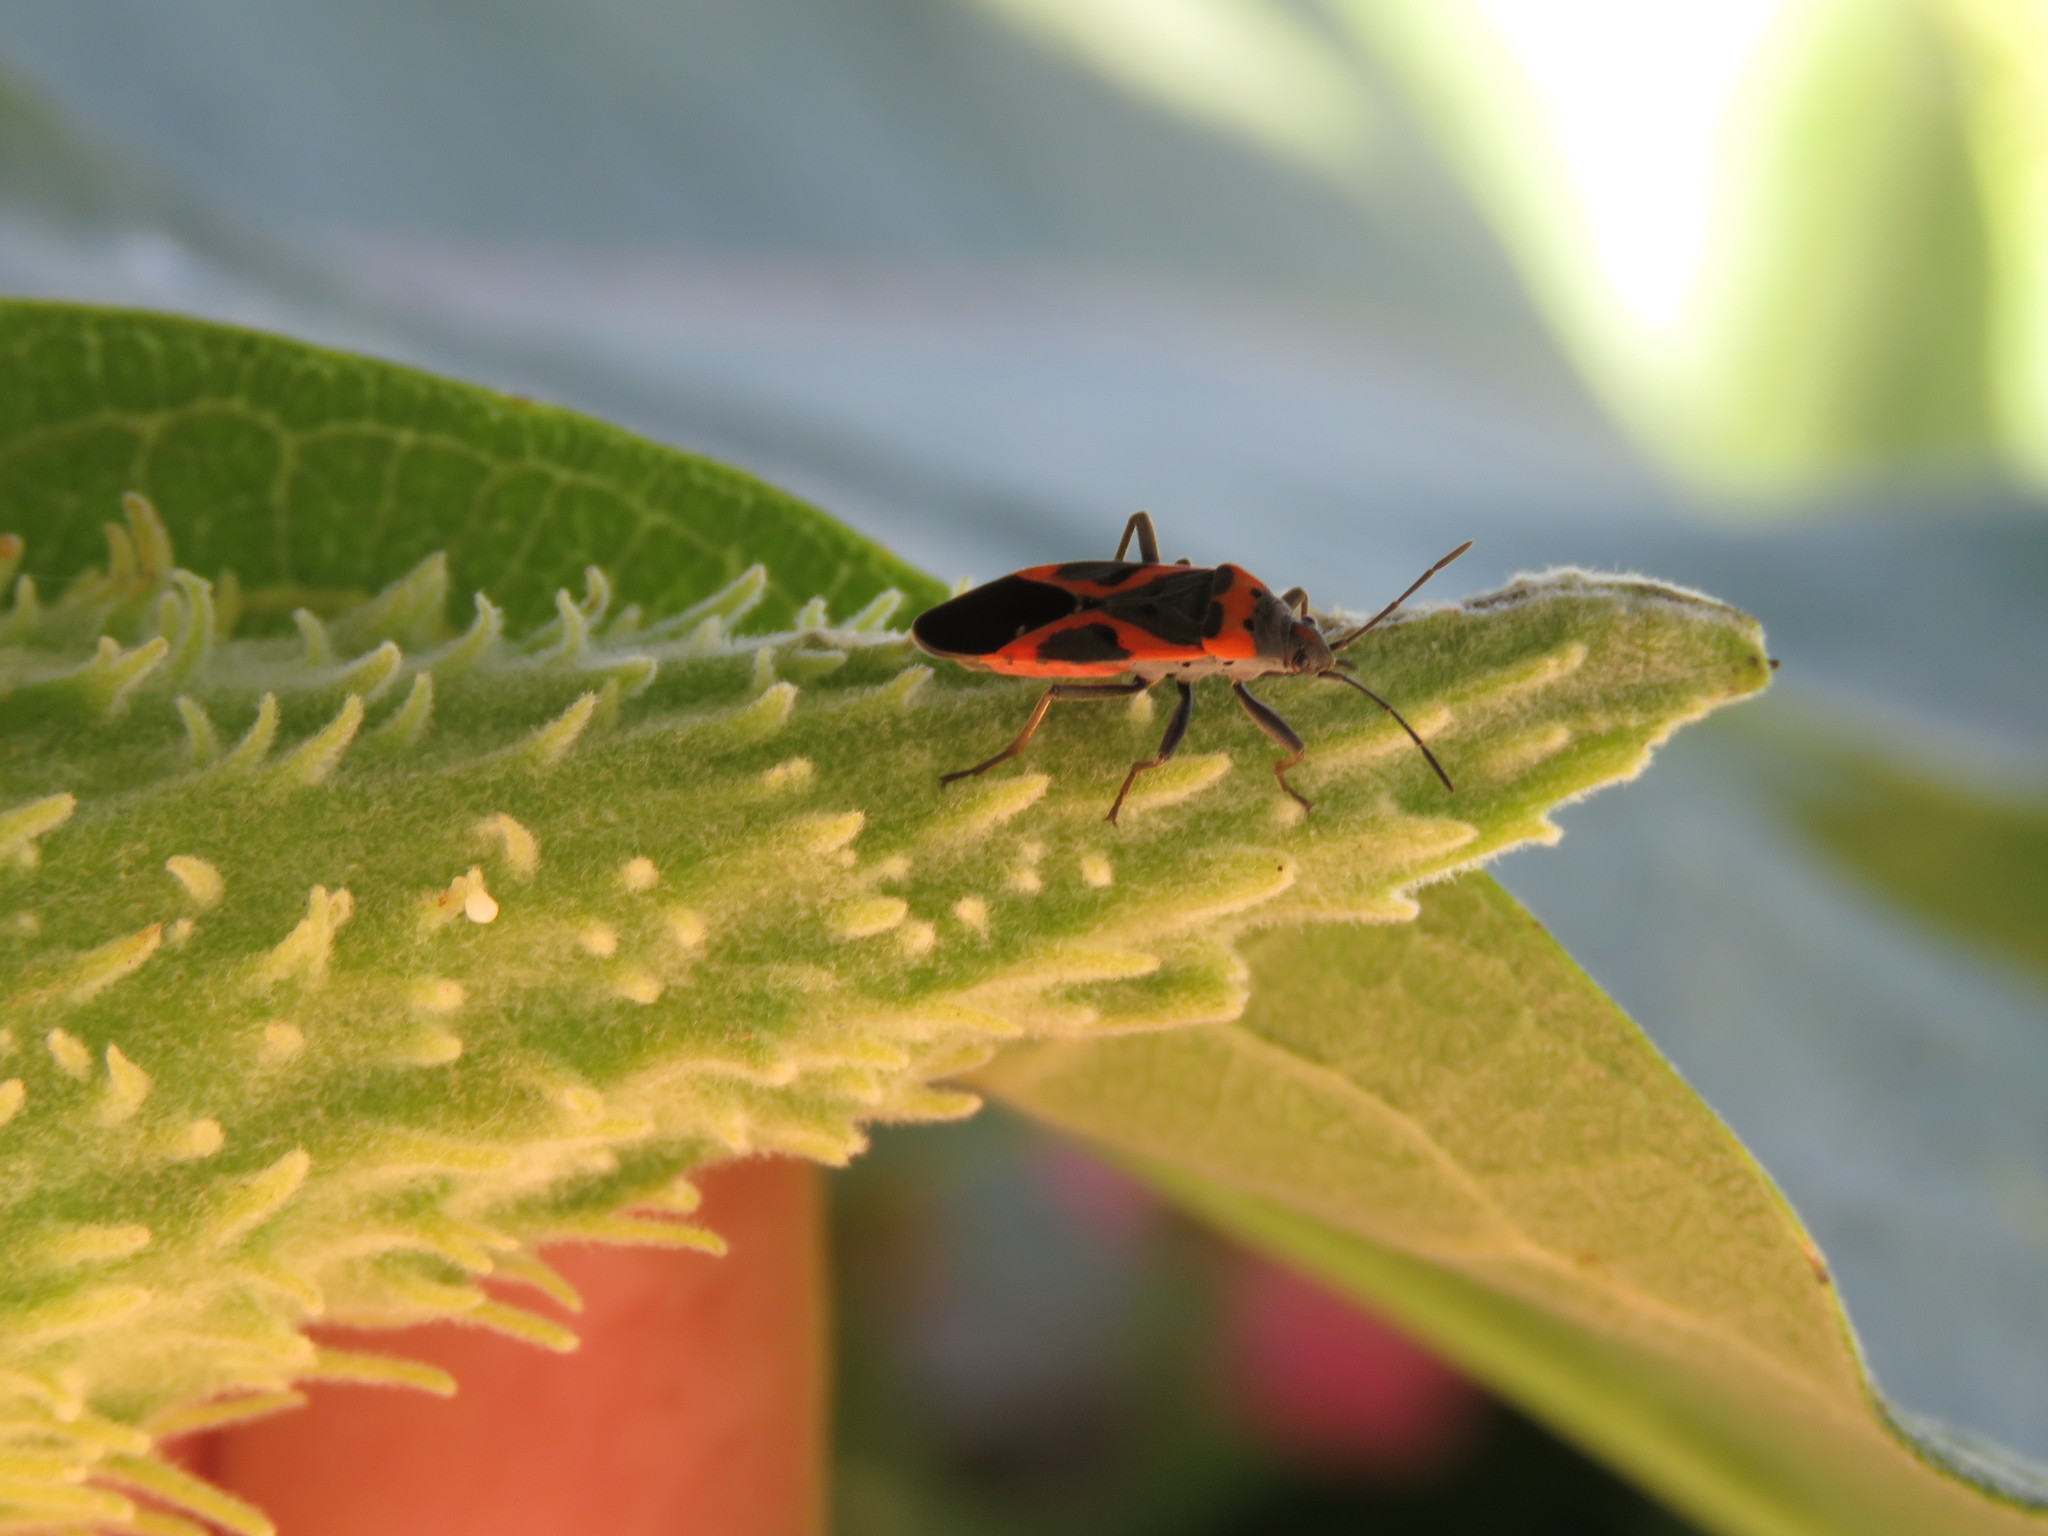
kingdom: Animalia
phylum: Arthropoda
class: Insecta
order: Hemiptera
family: Lygaeidae
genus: Lygaeus
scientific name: Lygaeus kalmii
